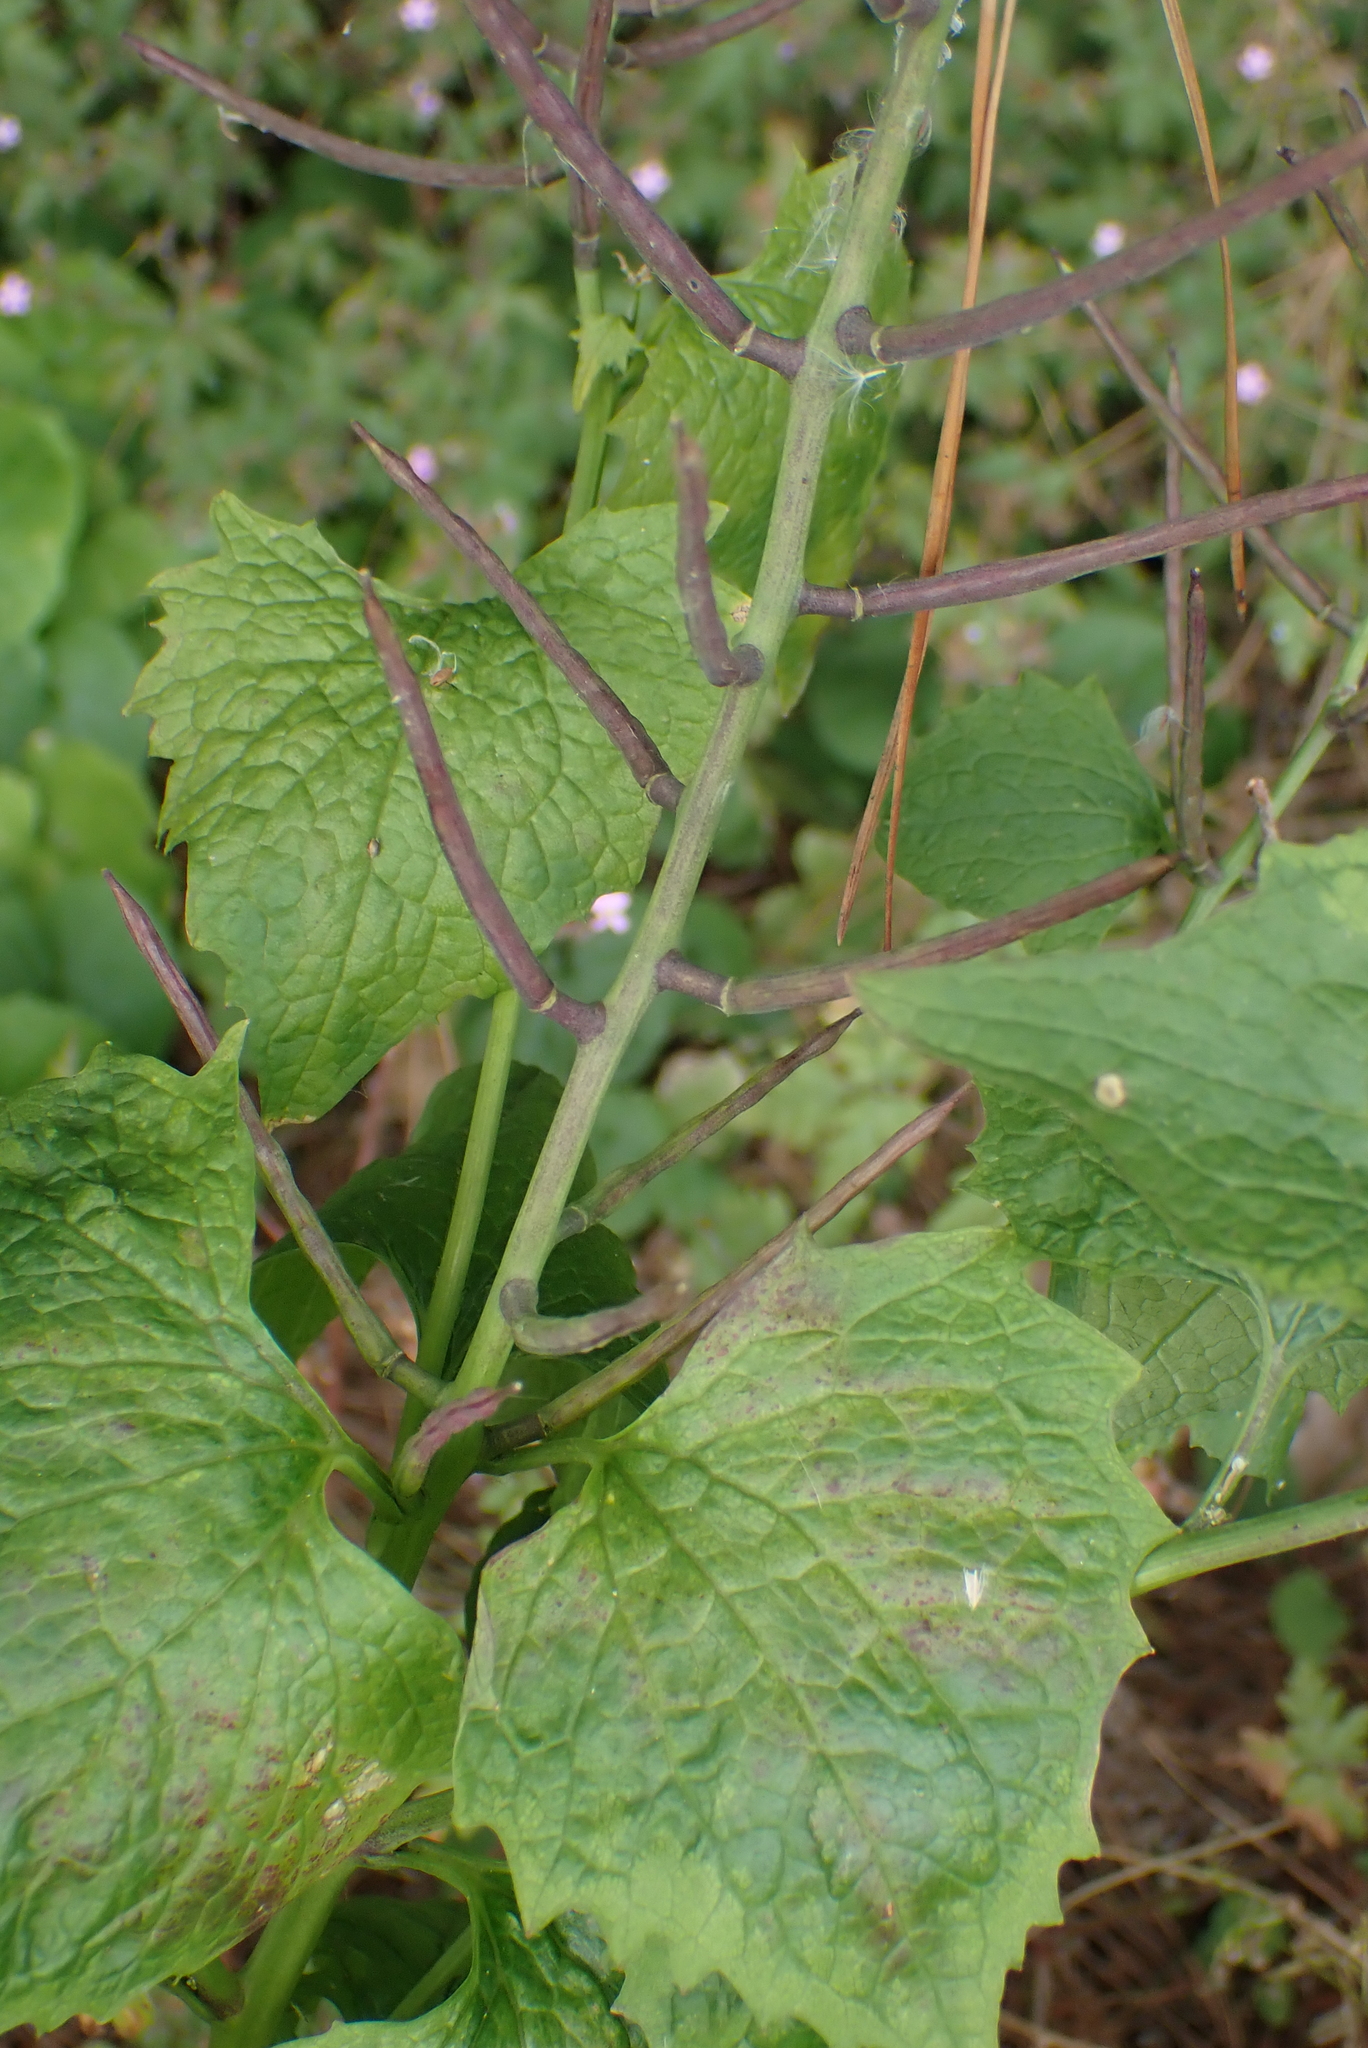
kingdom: Plantae
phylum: Tracheophyta
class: Magnoliopsida
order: Brassicales
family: Brassicaceae
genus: Alliaria
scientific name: Alliaria petiolata
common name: Garlic mustard
